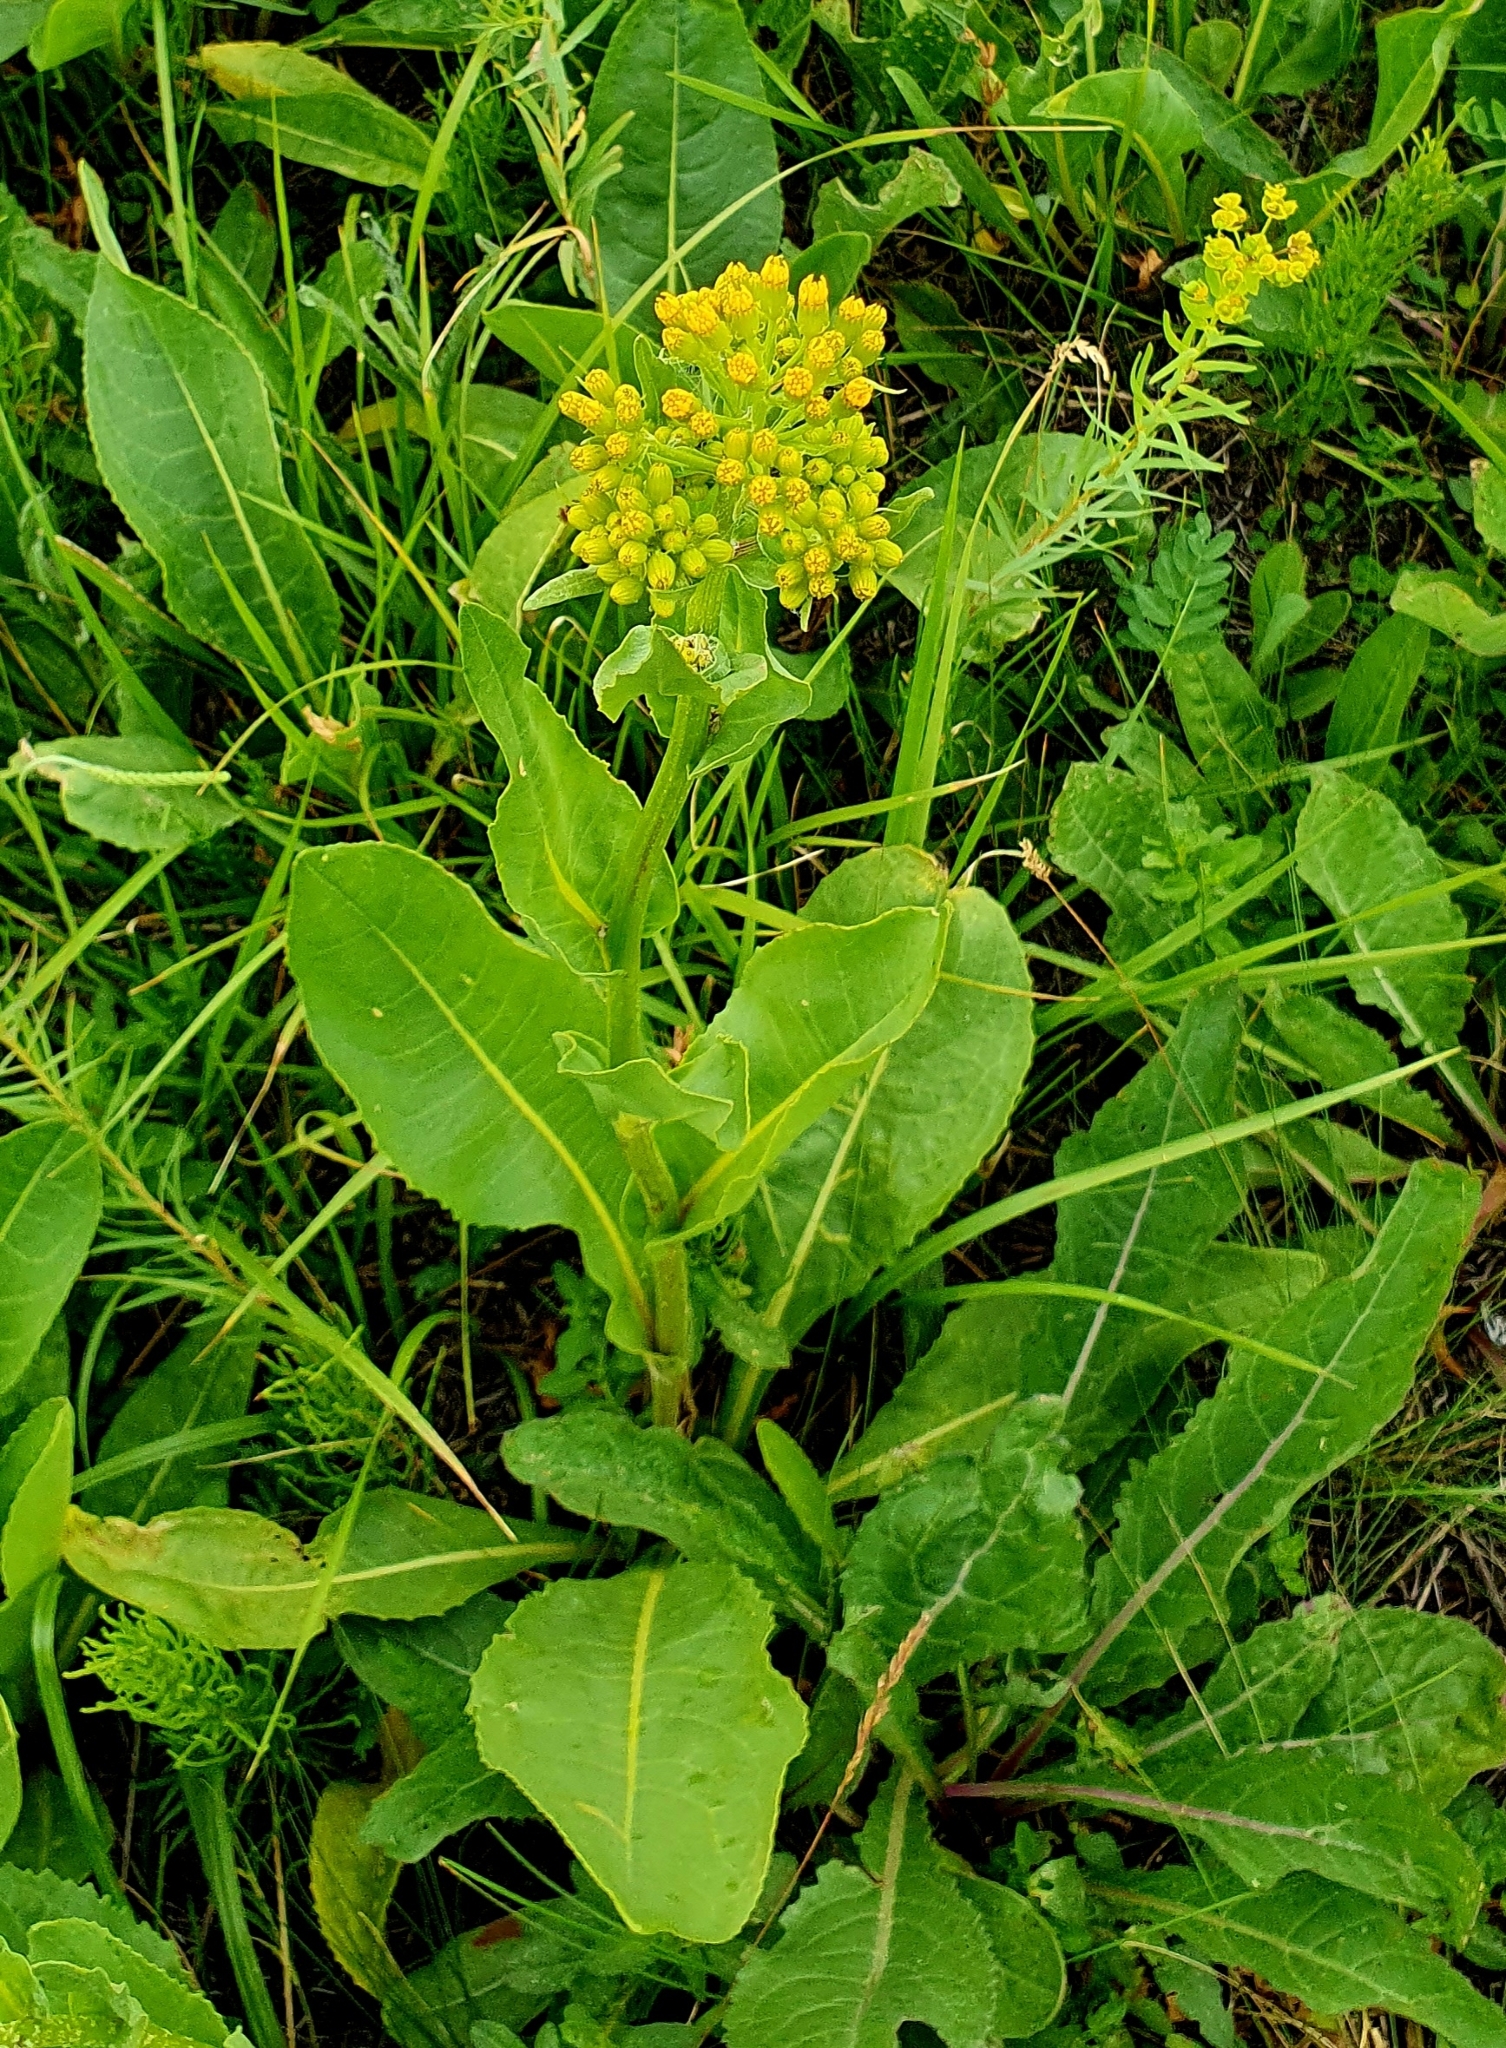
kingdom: Plantae
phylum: Tracheophyta
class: Magnoliopsida
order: Asterales
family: Asteraceae
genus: Senecio
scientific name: Senecio doria
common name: Golden ragwort
